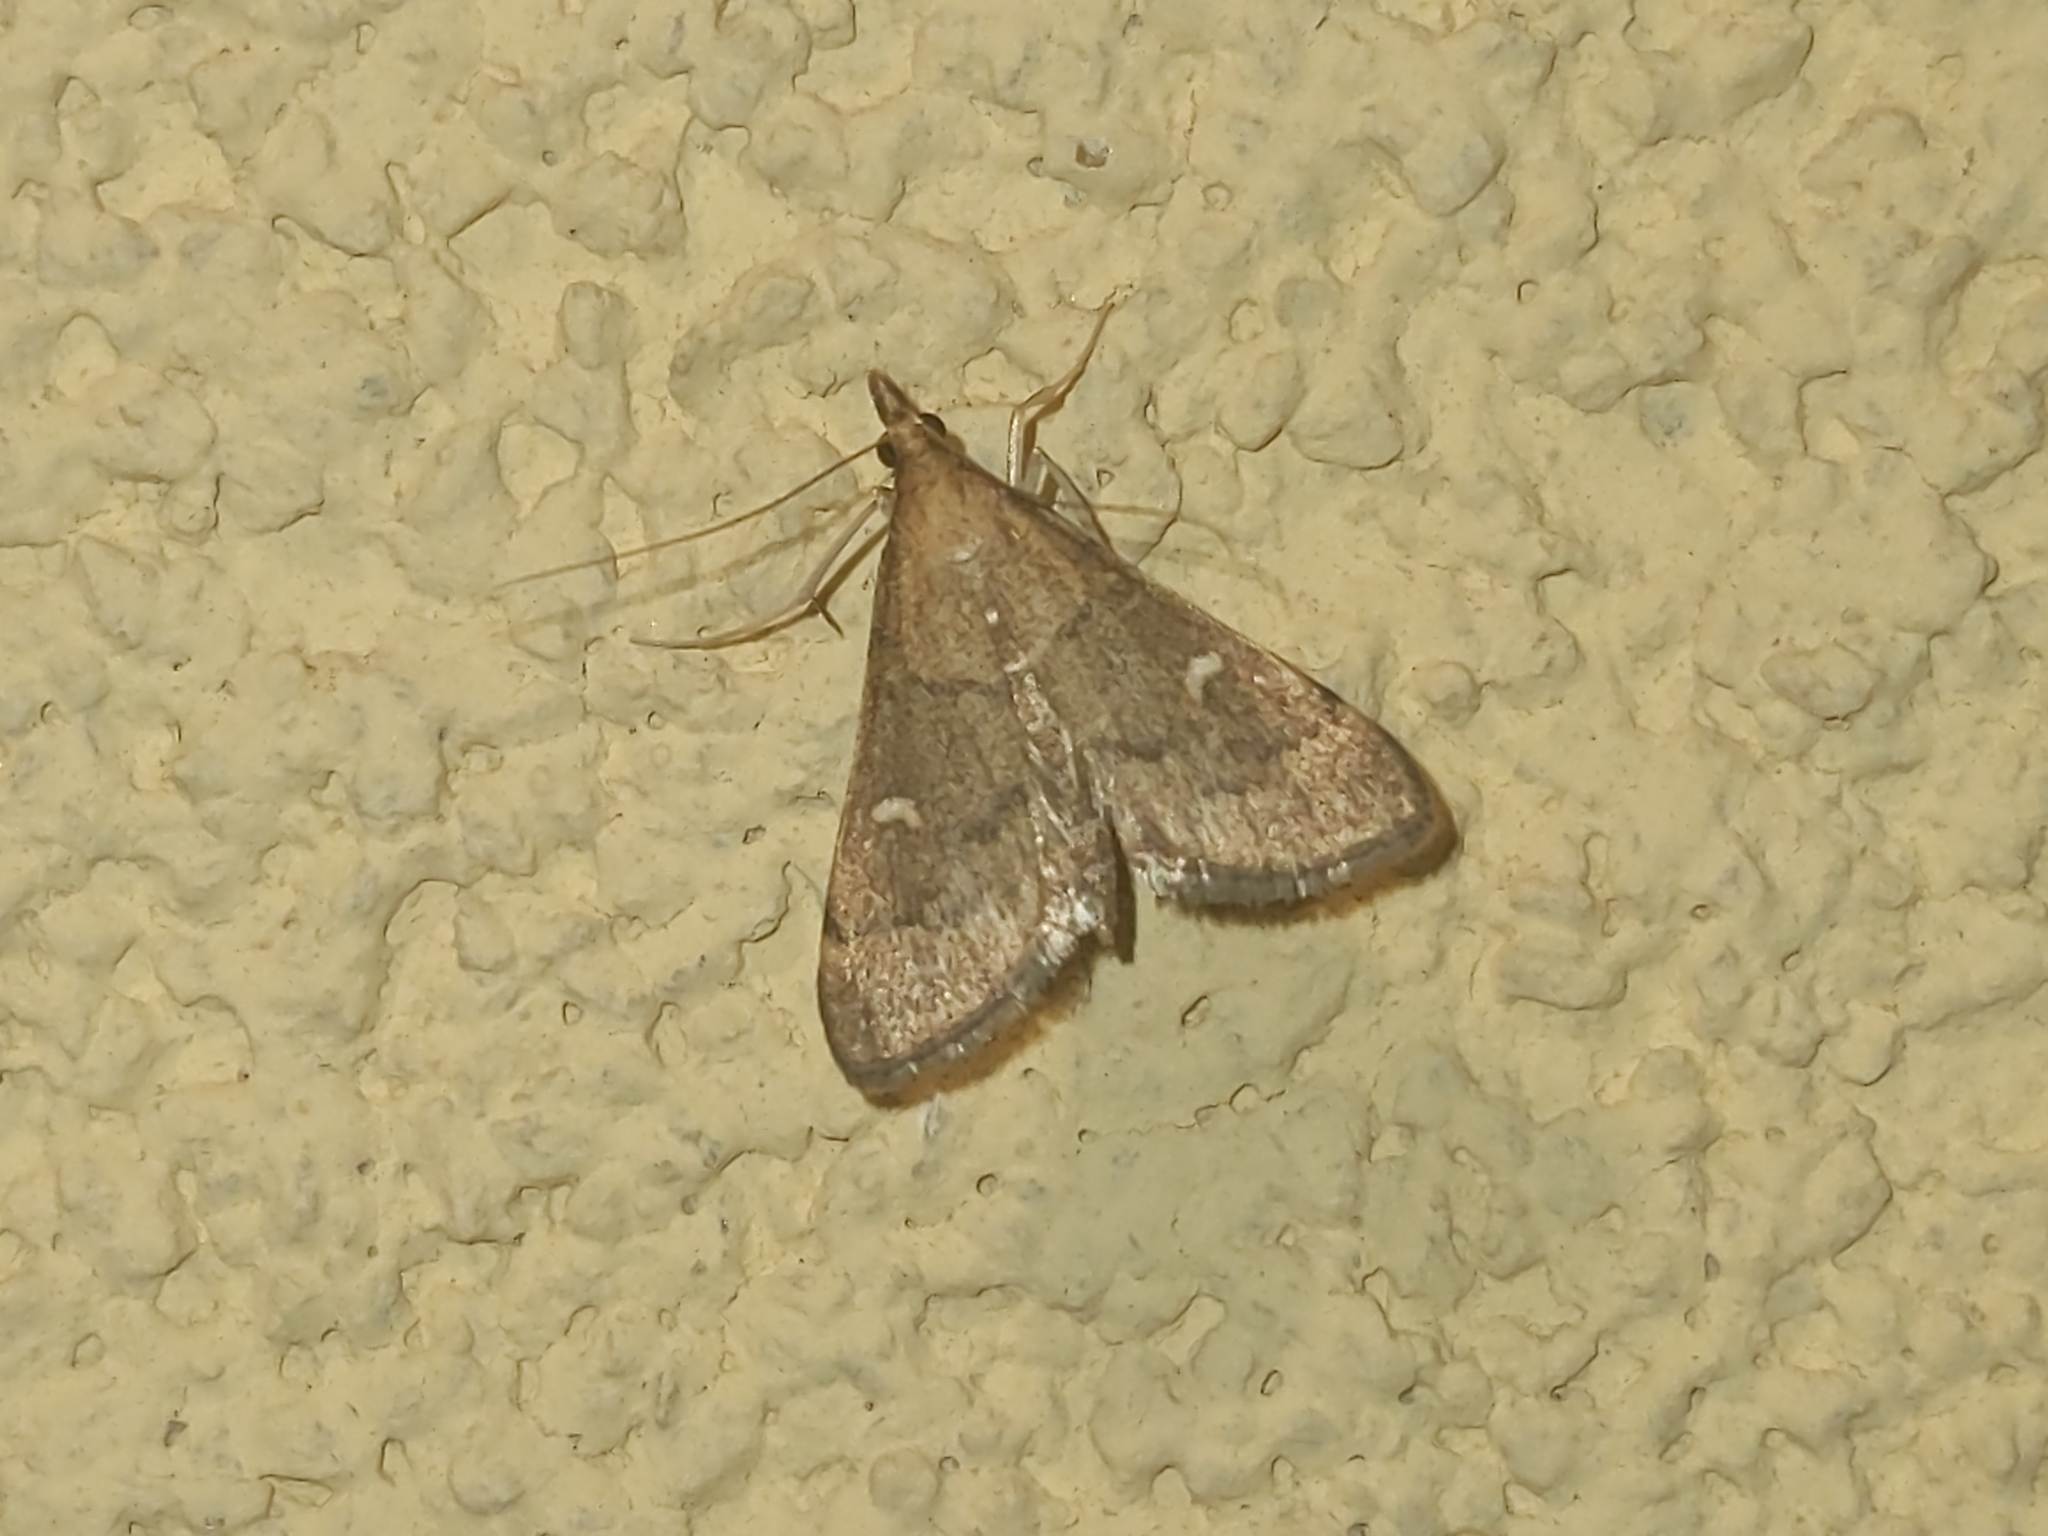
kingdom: Animalia
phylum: Arthropoda
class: Insecta
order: Lepidoptera
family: Crambidae
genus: Stenia
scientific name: Stenia Dolicharthria punctalis
